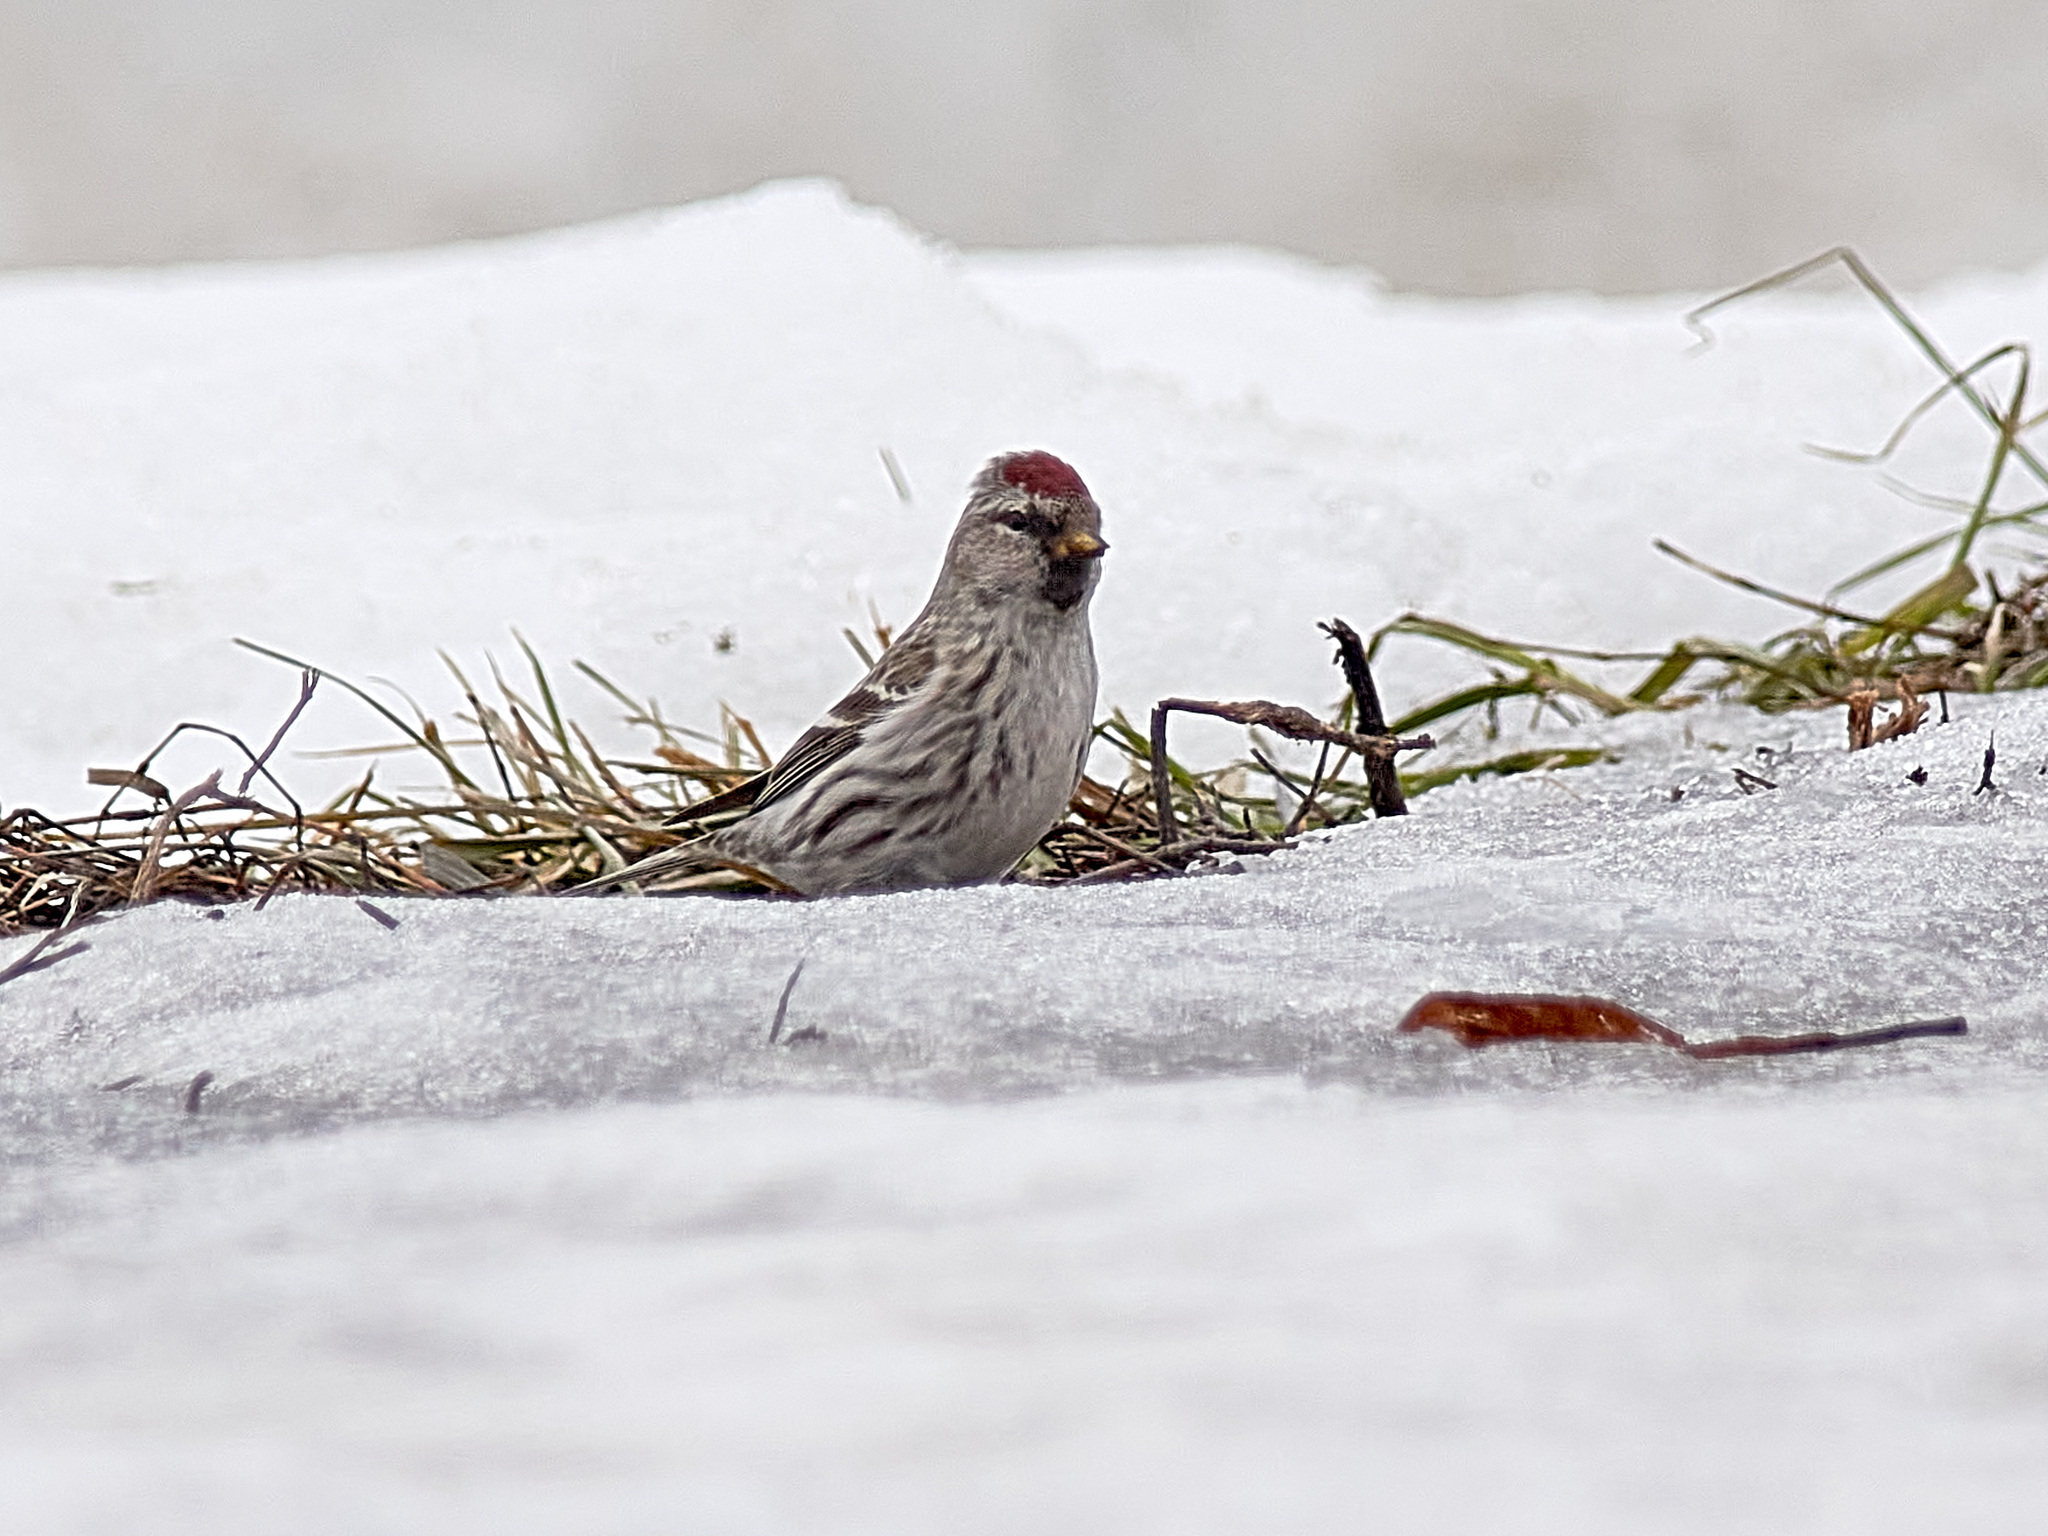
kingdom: Animalia
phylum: Chordata
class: Aves
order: Passeriformes
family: Fringillidae
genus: Acanthis
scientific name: Acanthis flammea
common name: Common redpoll
